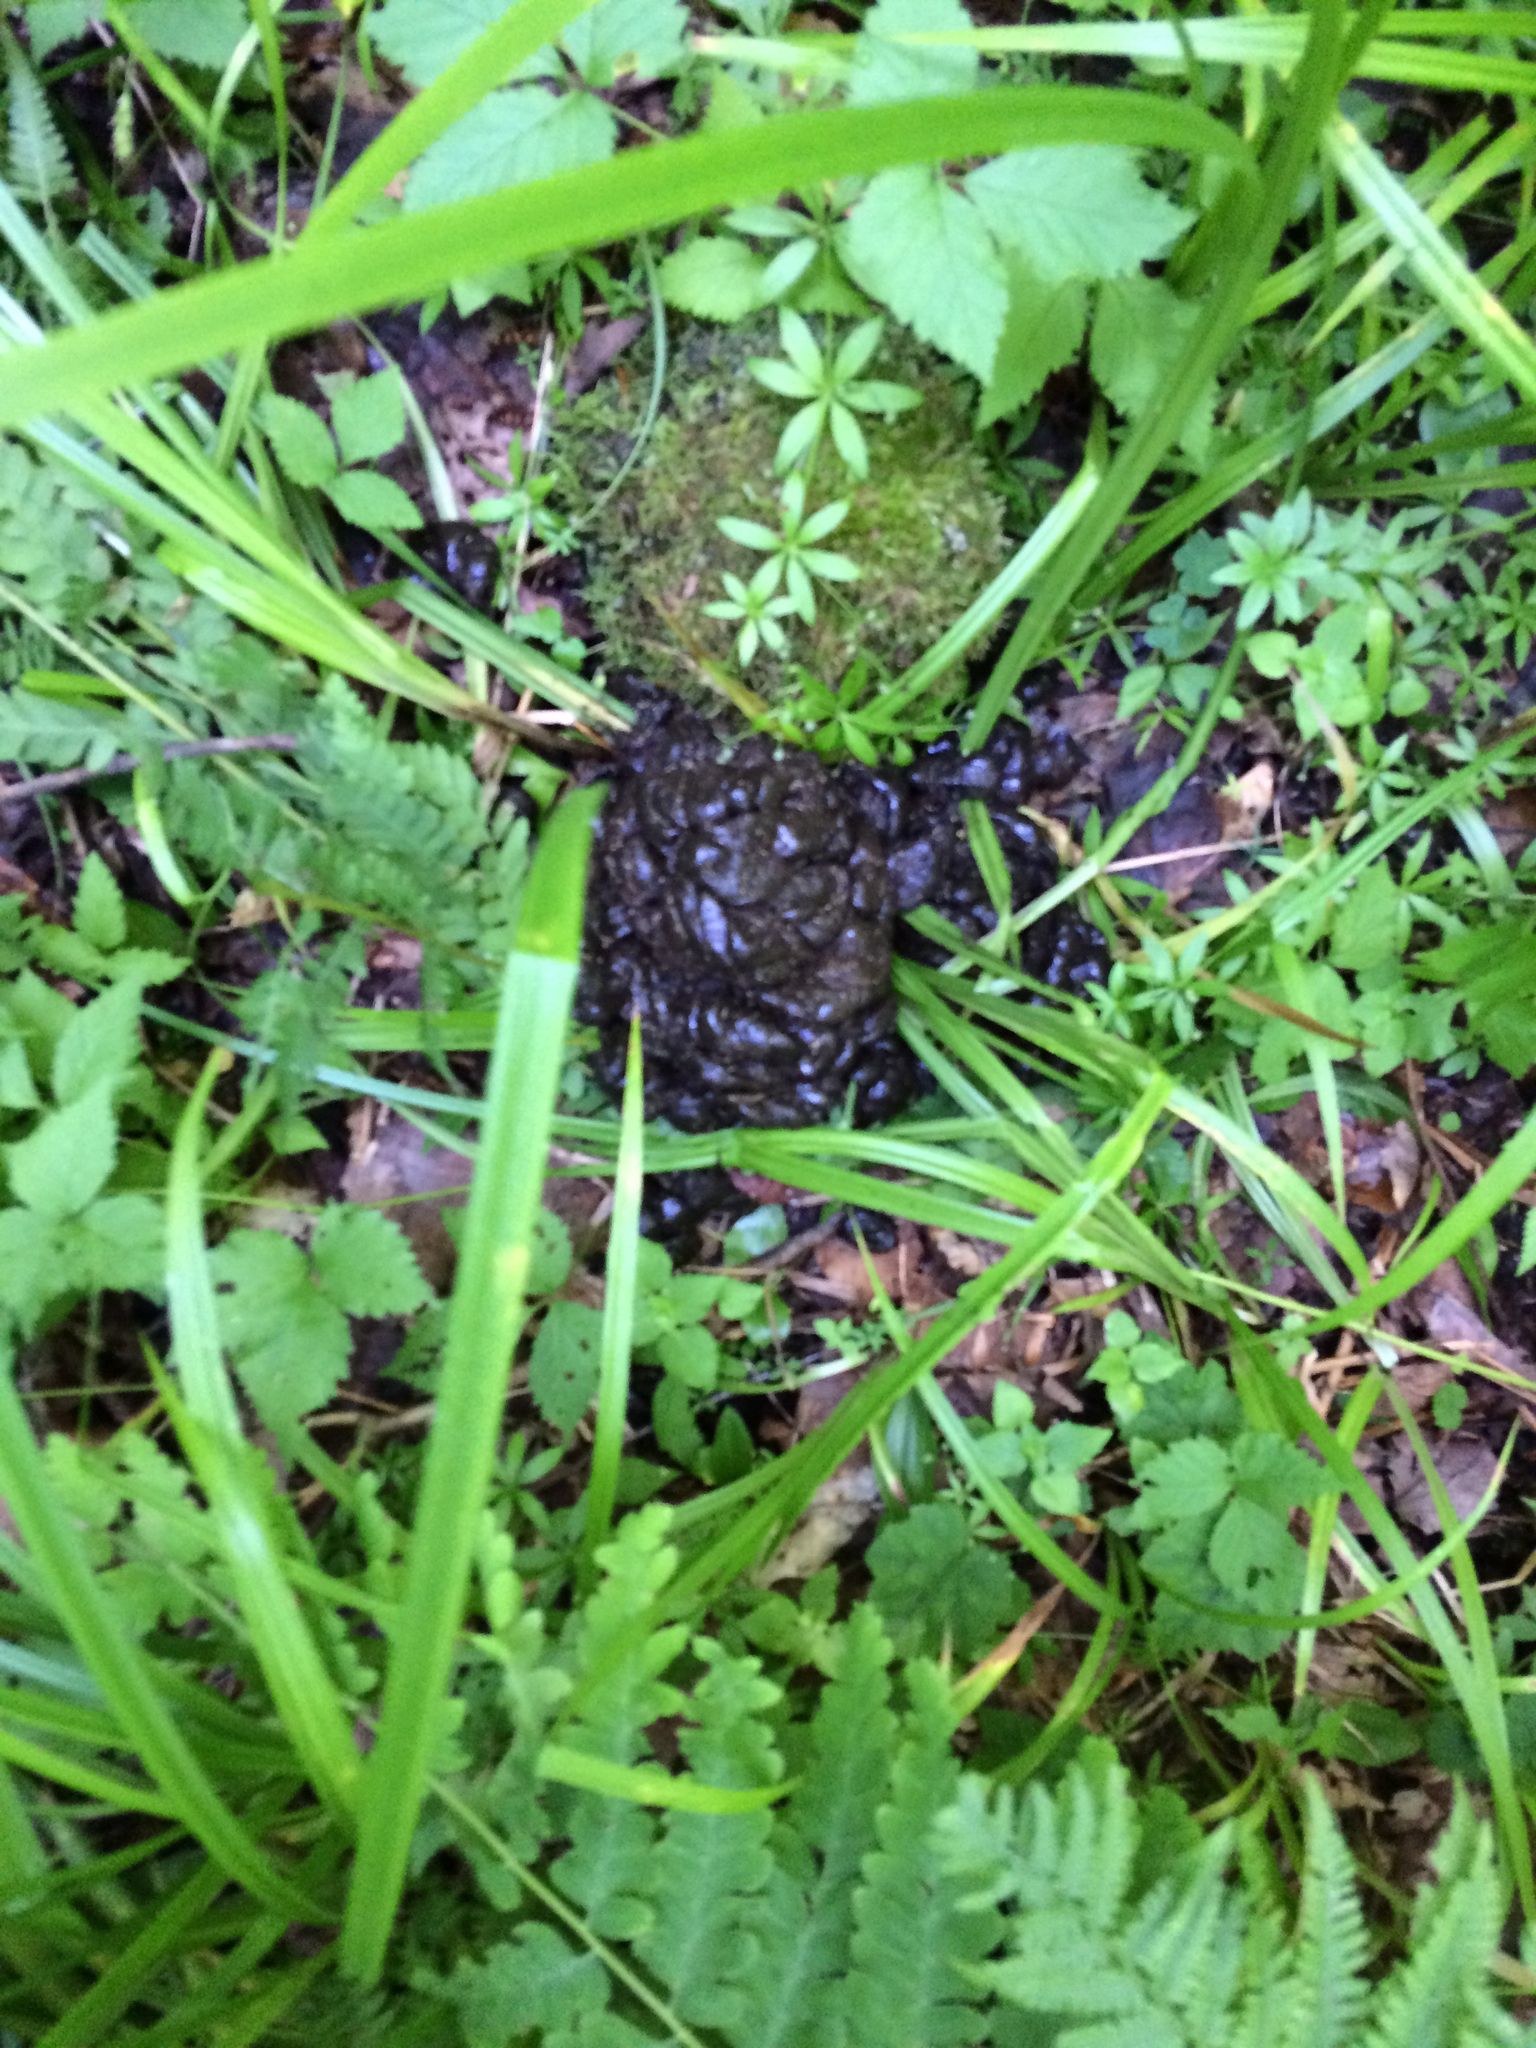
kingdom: Animalia
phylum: Chordata
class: Mammalia
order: Artiodactyla
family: Cervidae
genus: Alces
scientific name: Alces alces
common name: Moose
